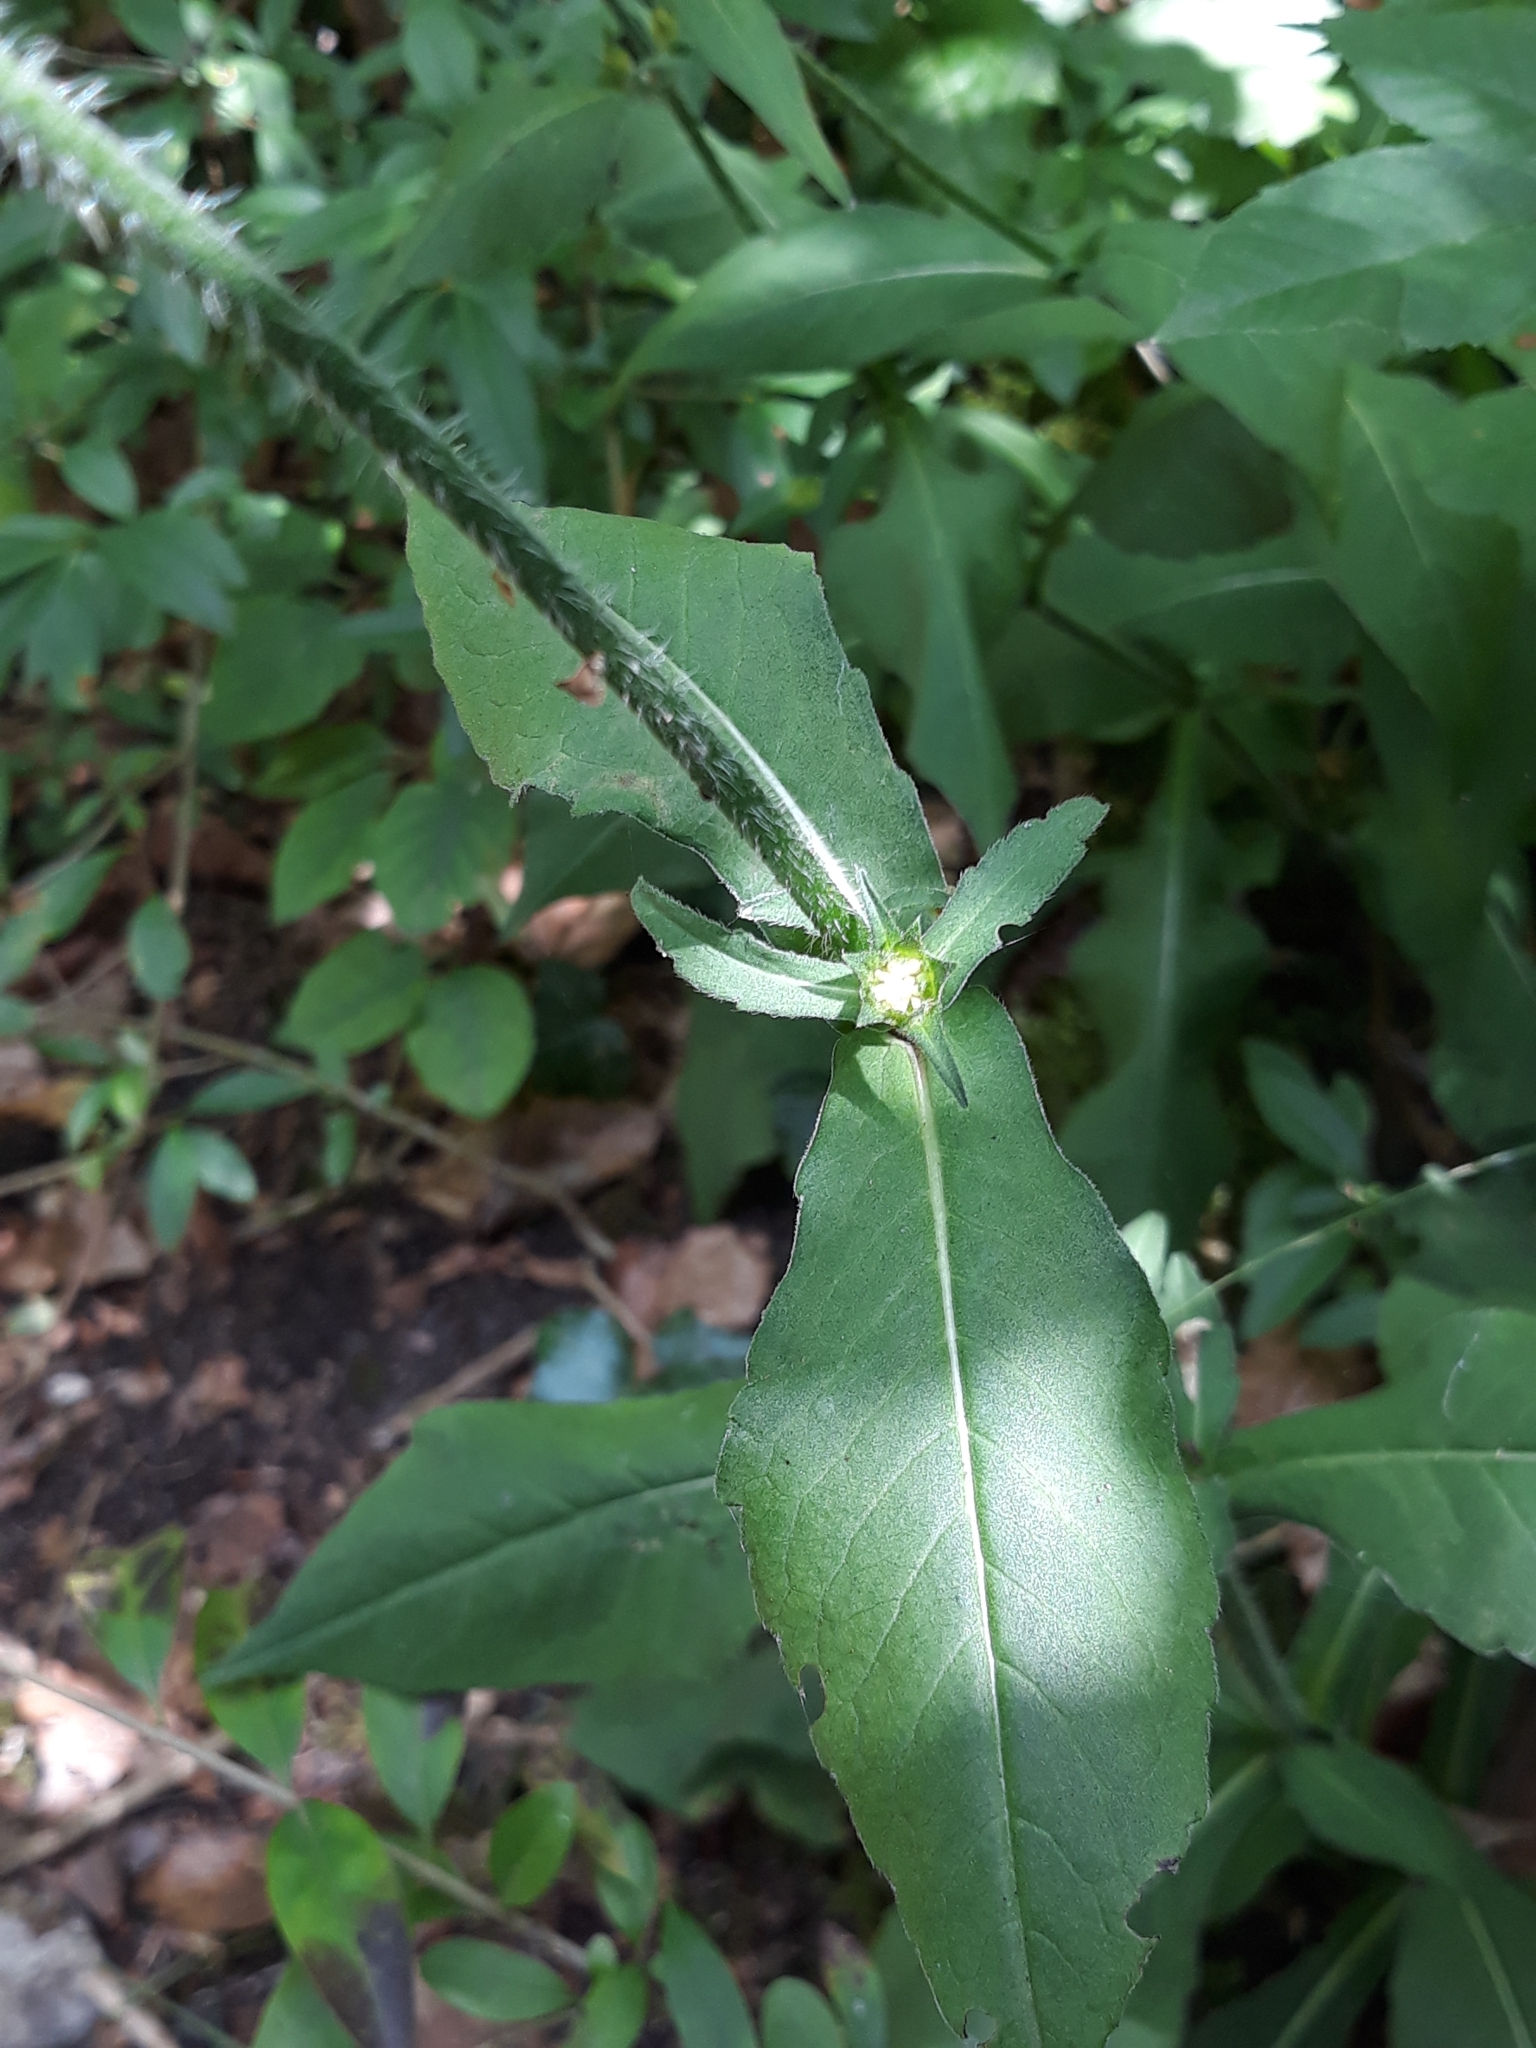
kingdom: Plantae
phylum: Tracheophyta
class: Magnoliopsida
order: Dipsacales
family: Caprifoliaceae
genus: Knautia
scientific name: Knautia dipsacifolia
